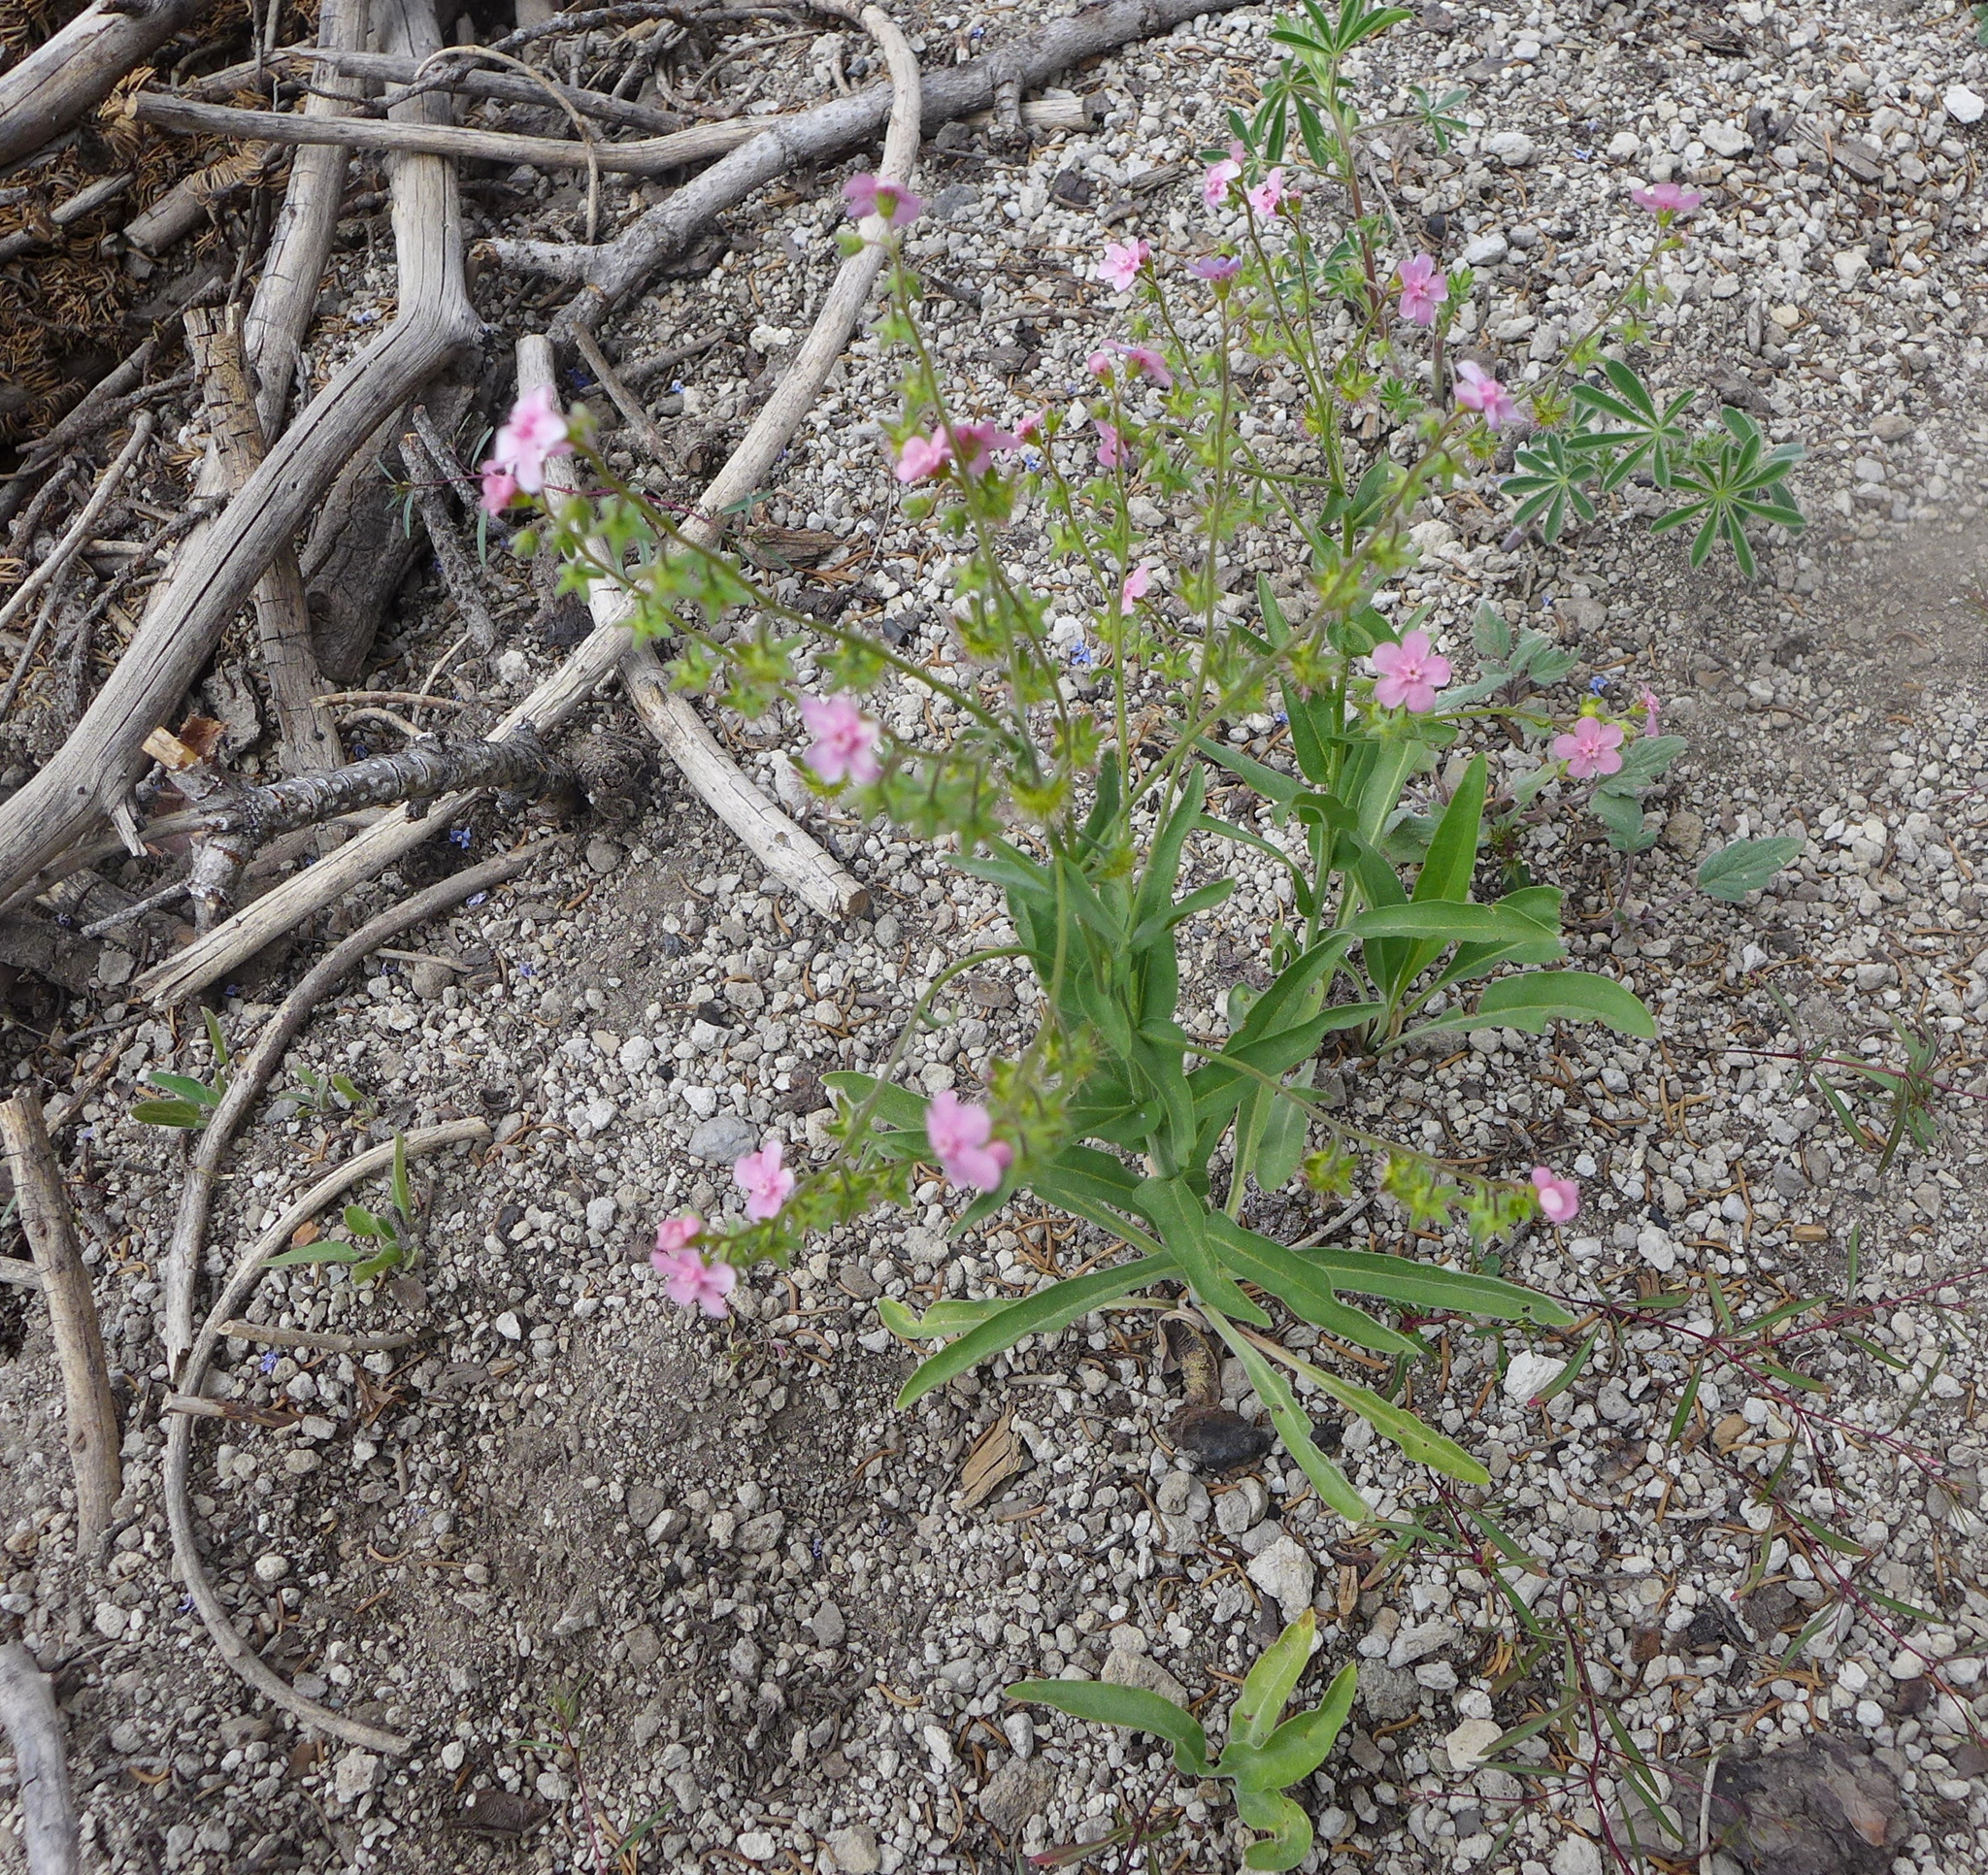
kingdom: Plantae
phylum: Tracheophyta
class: Magnoliopsida
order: Boraginales
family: Boraginaceae
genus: Hackelia
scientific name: Hackelia mundula
